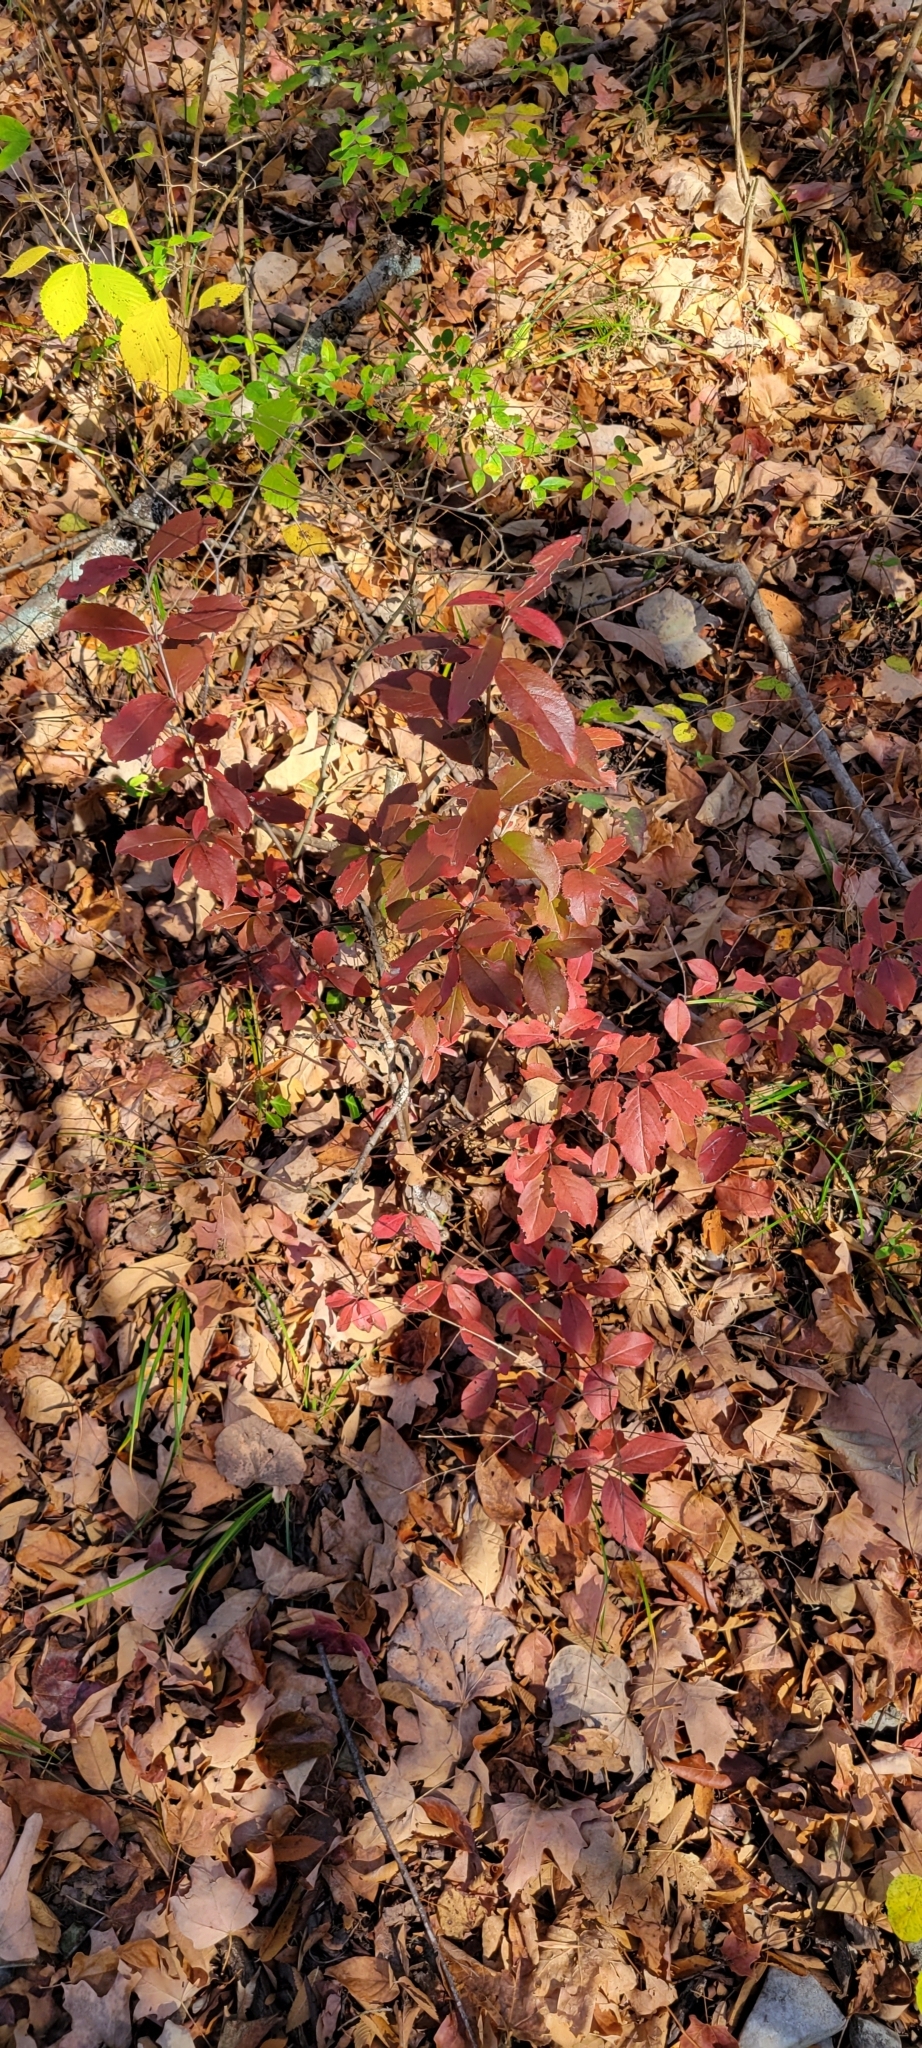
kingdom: Plantae
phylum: Tracheophyta
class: Magnoliopsida
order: Dipsacales
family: Viburnaceae
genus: Viburnum
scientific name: Viburnum rufidulum
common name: Blue haw
